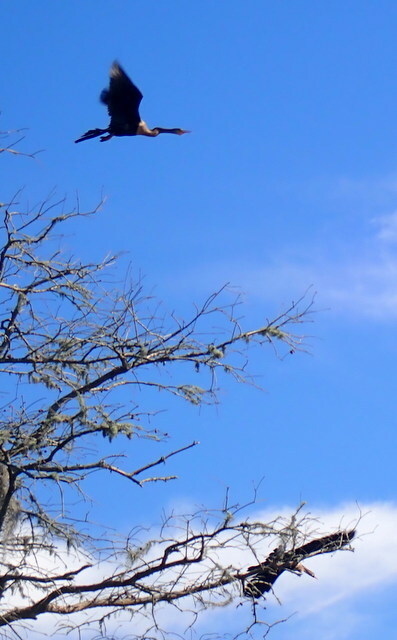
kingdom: Animalia
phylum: Chordata
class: Aves
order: Suliformes
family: Anhingidae
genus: Anhinga
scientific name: Anhinga anhinga
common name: Anhinga
